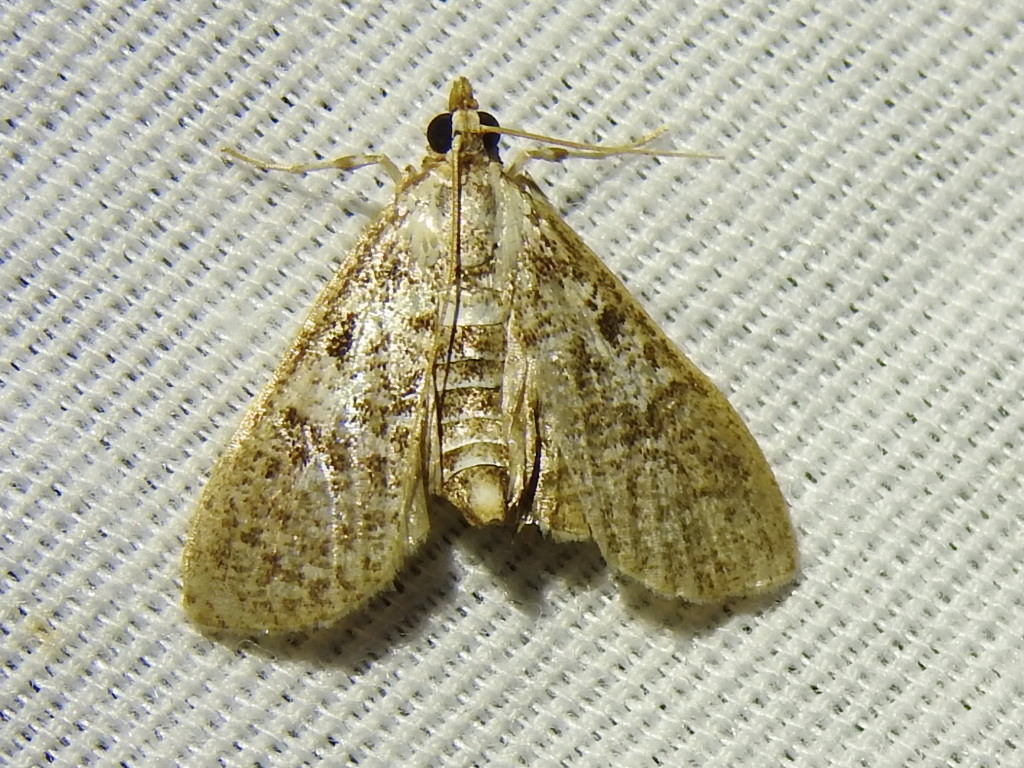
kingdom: Animalia
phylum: Arthropoda
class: Insecta
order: Lepidoptera
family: Crambidae
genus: Palpita
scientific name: Palpita magniferalis
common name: Splendid palpita moth
